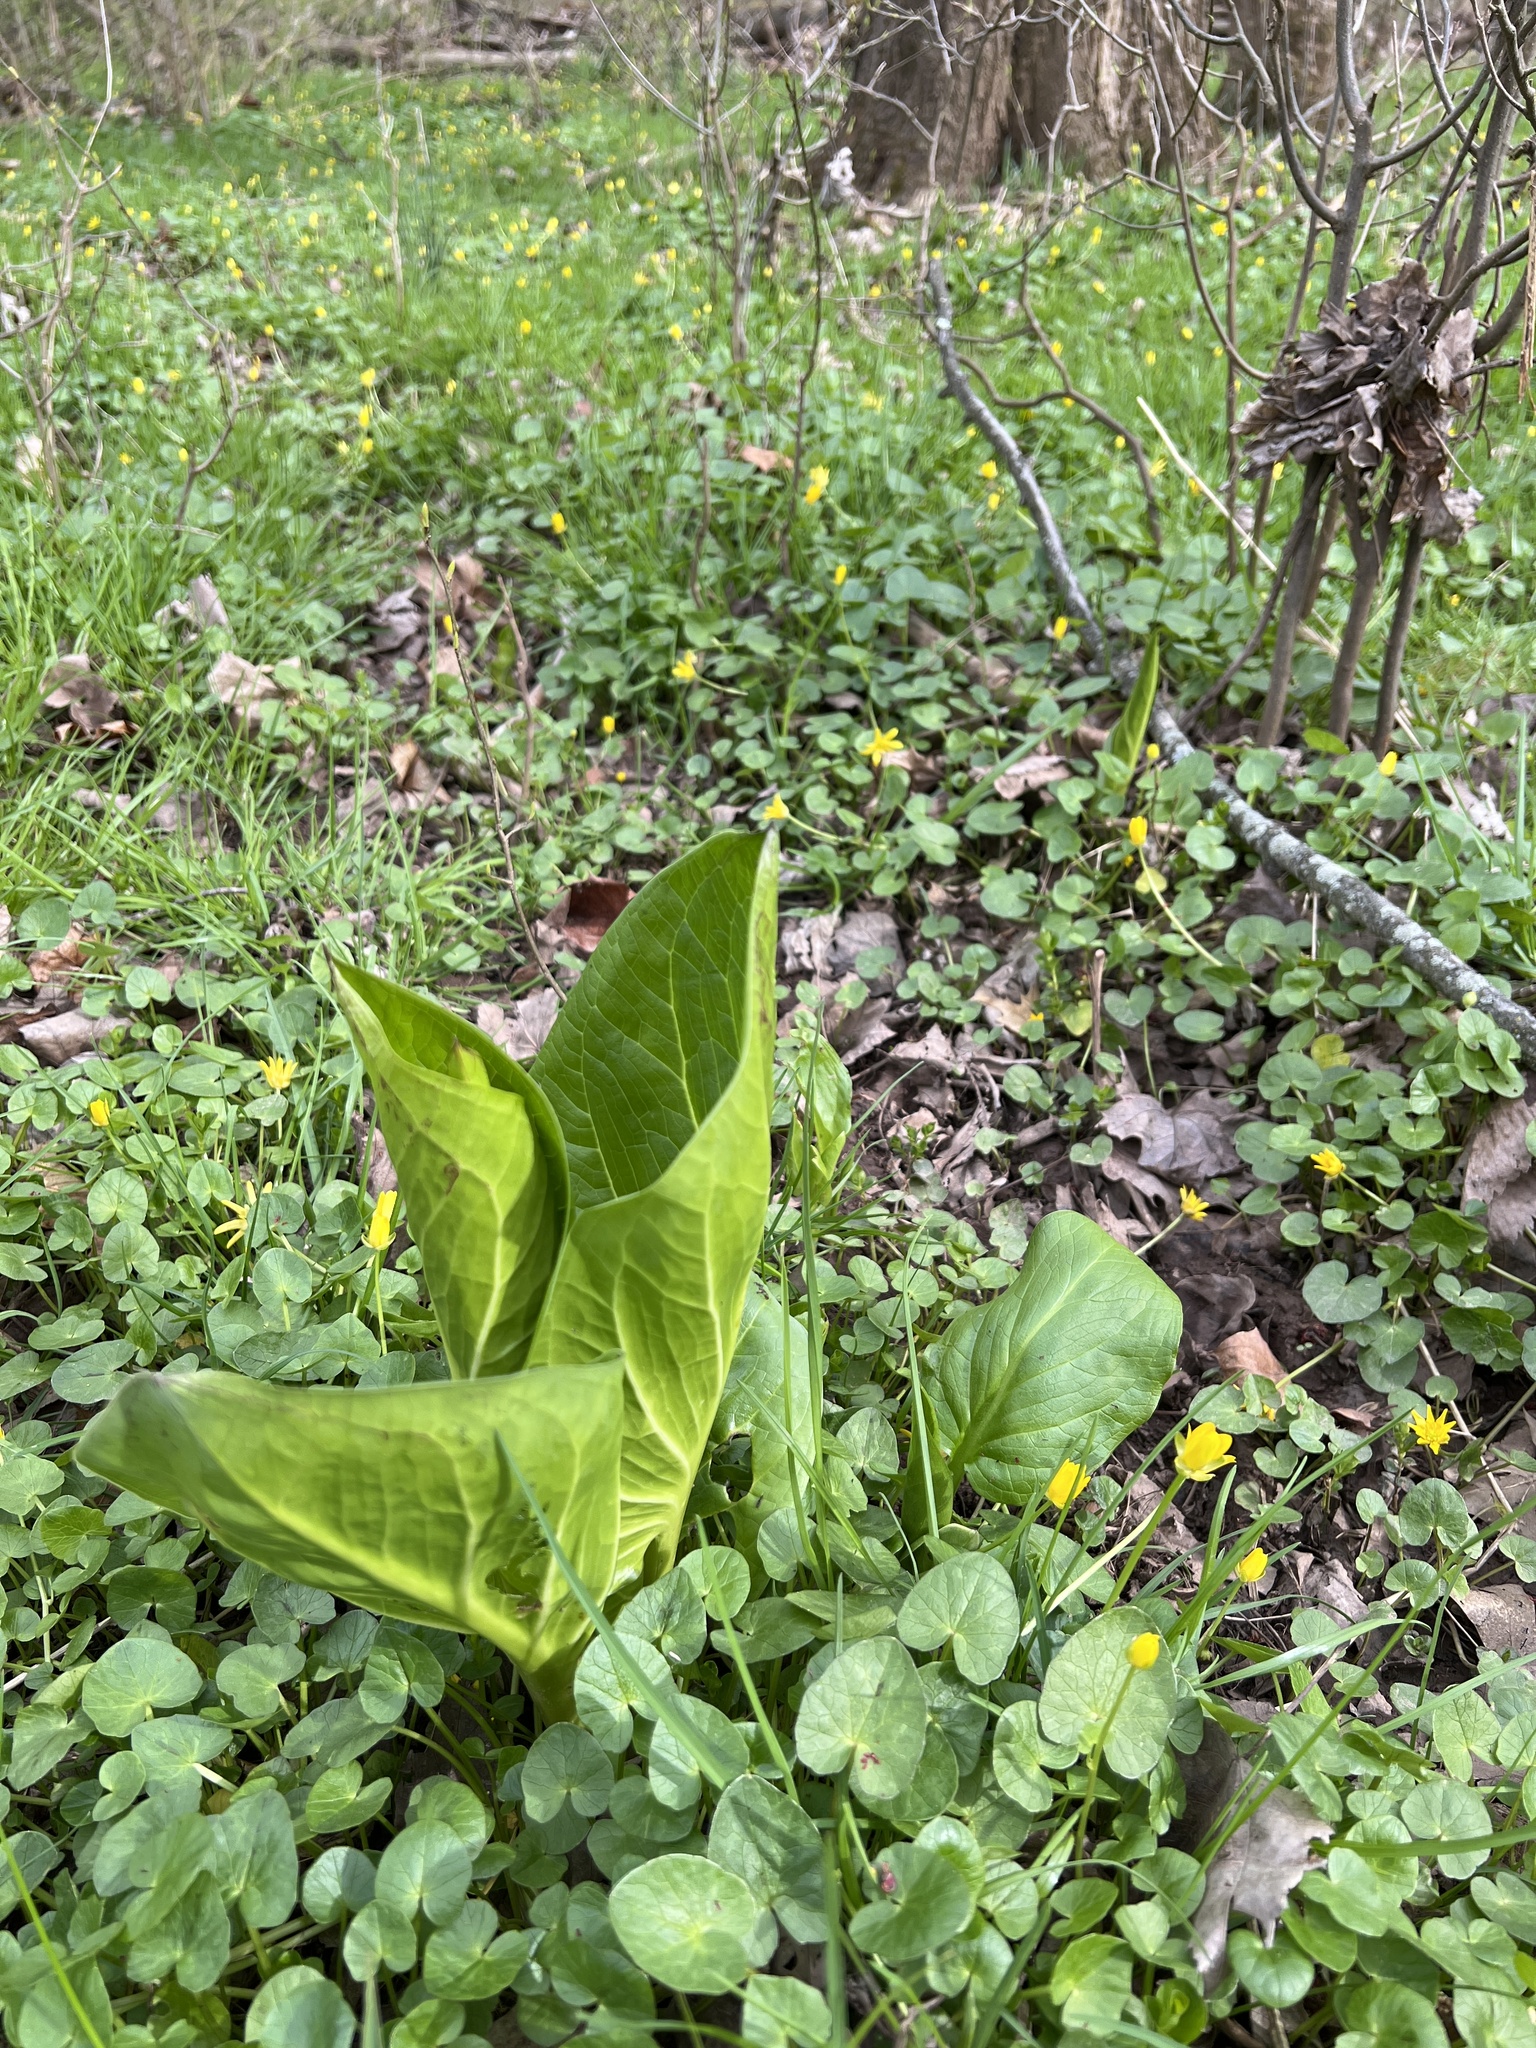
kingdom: Plantae
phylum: Tracheophyta
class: Liliopsida
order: Alismatales
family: Araceae
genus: Symplocarpus
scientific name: Symplocarpus foetidus
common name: Eastern skunk cabbage
